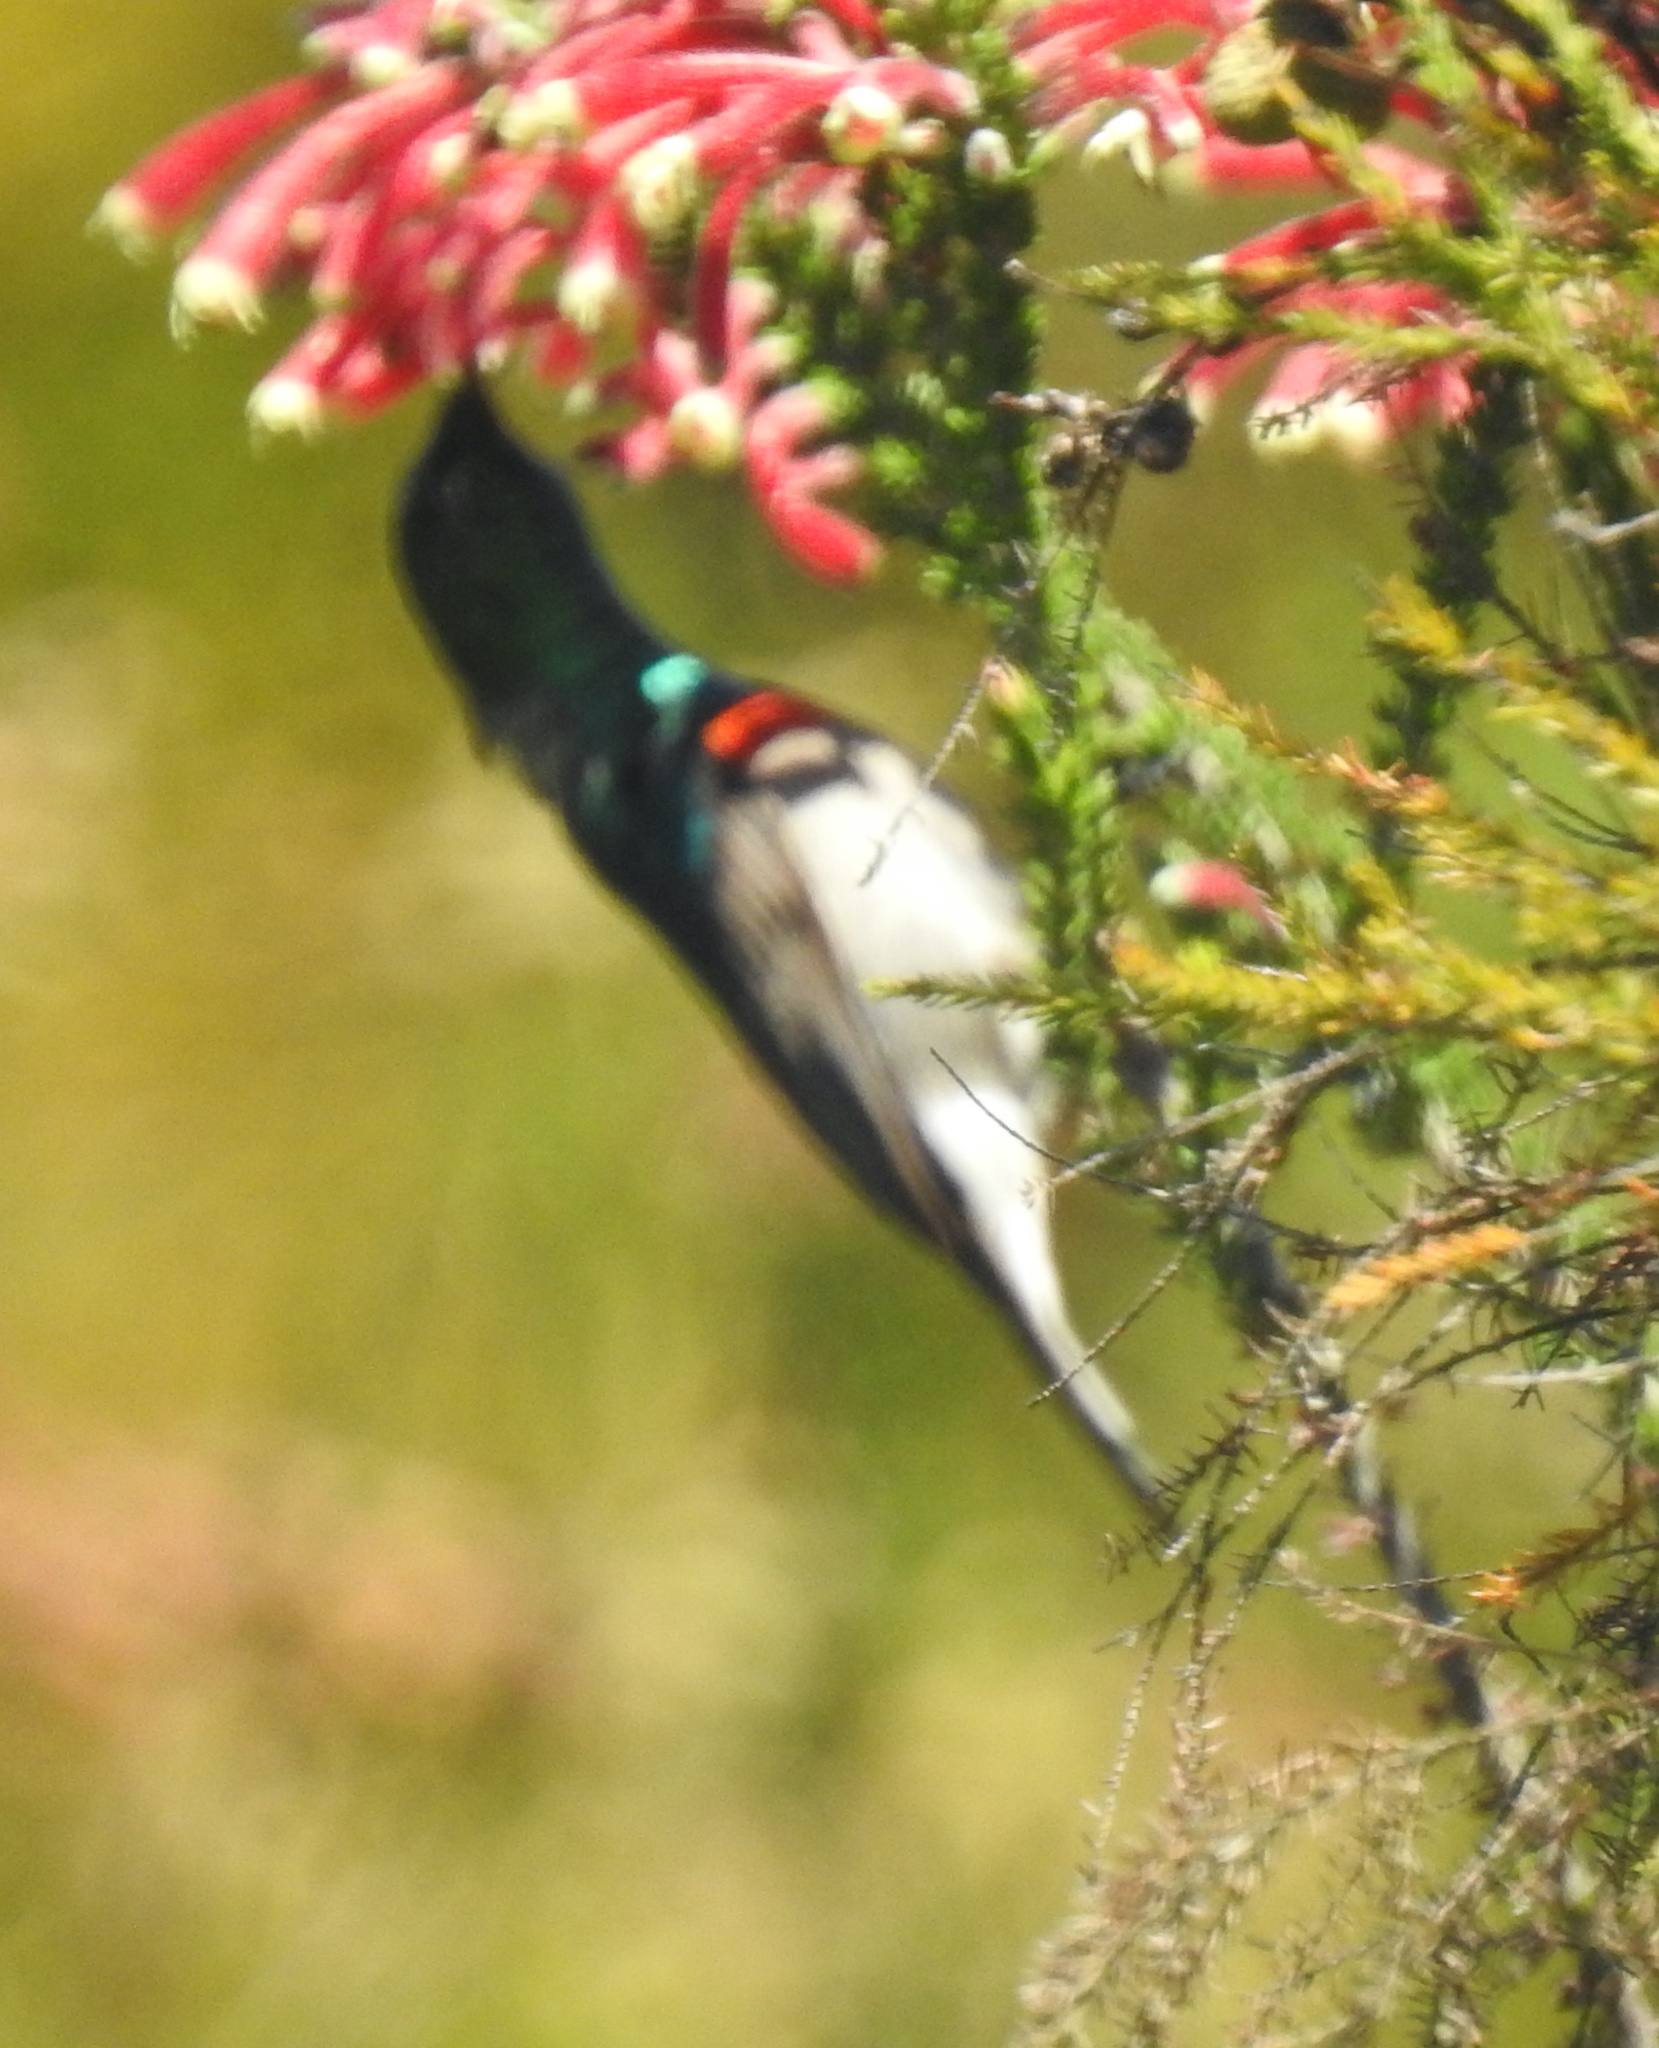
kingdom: Animalia
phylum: Chordata
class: Aves
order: Passeriformes
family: Nectariniidae
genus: Cinnyris
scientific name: Cinnyris chalybeus
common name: Southern double-collared sunbird
